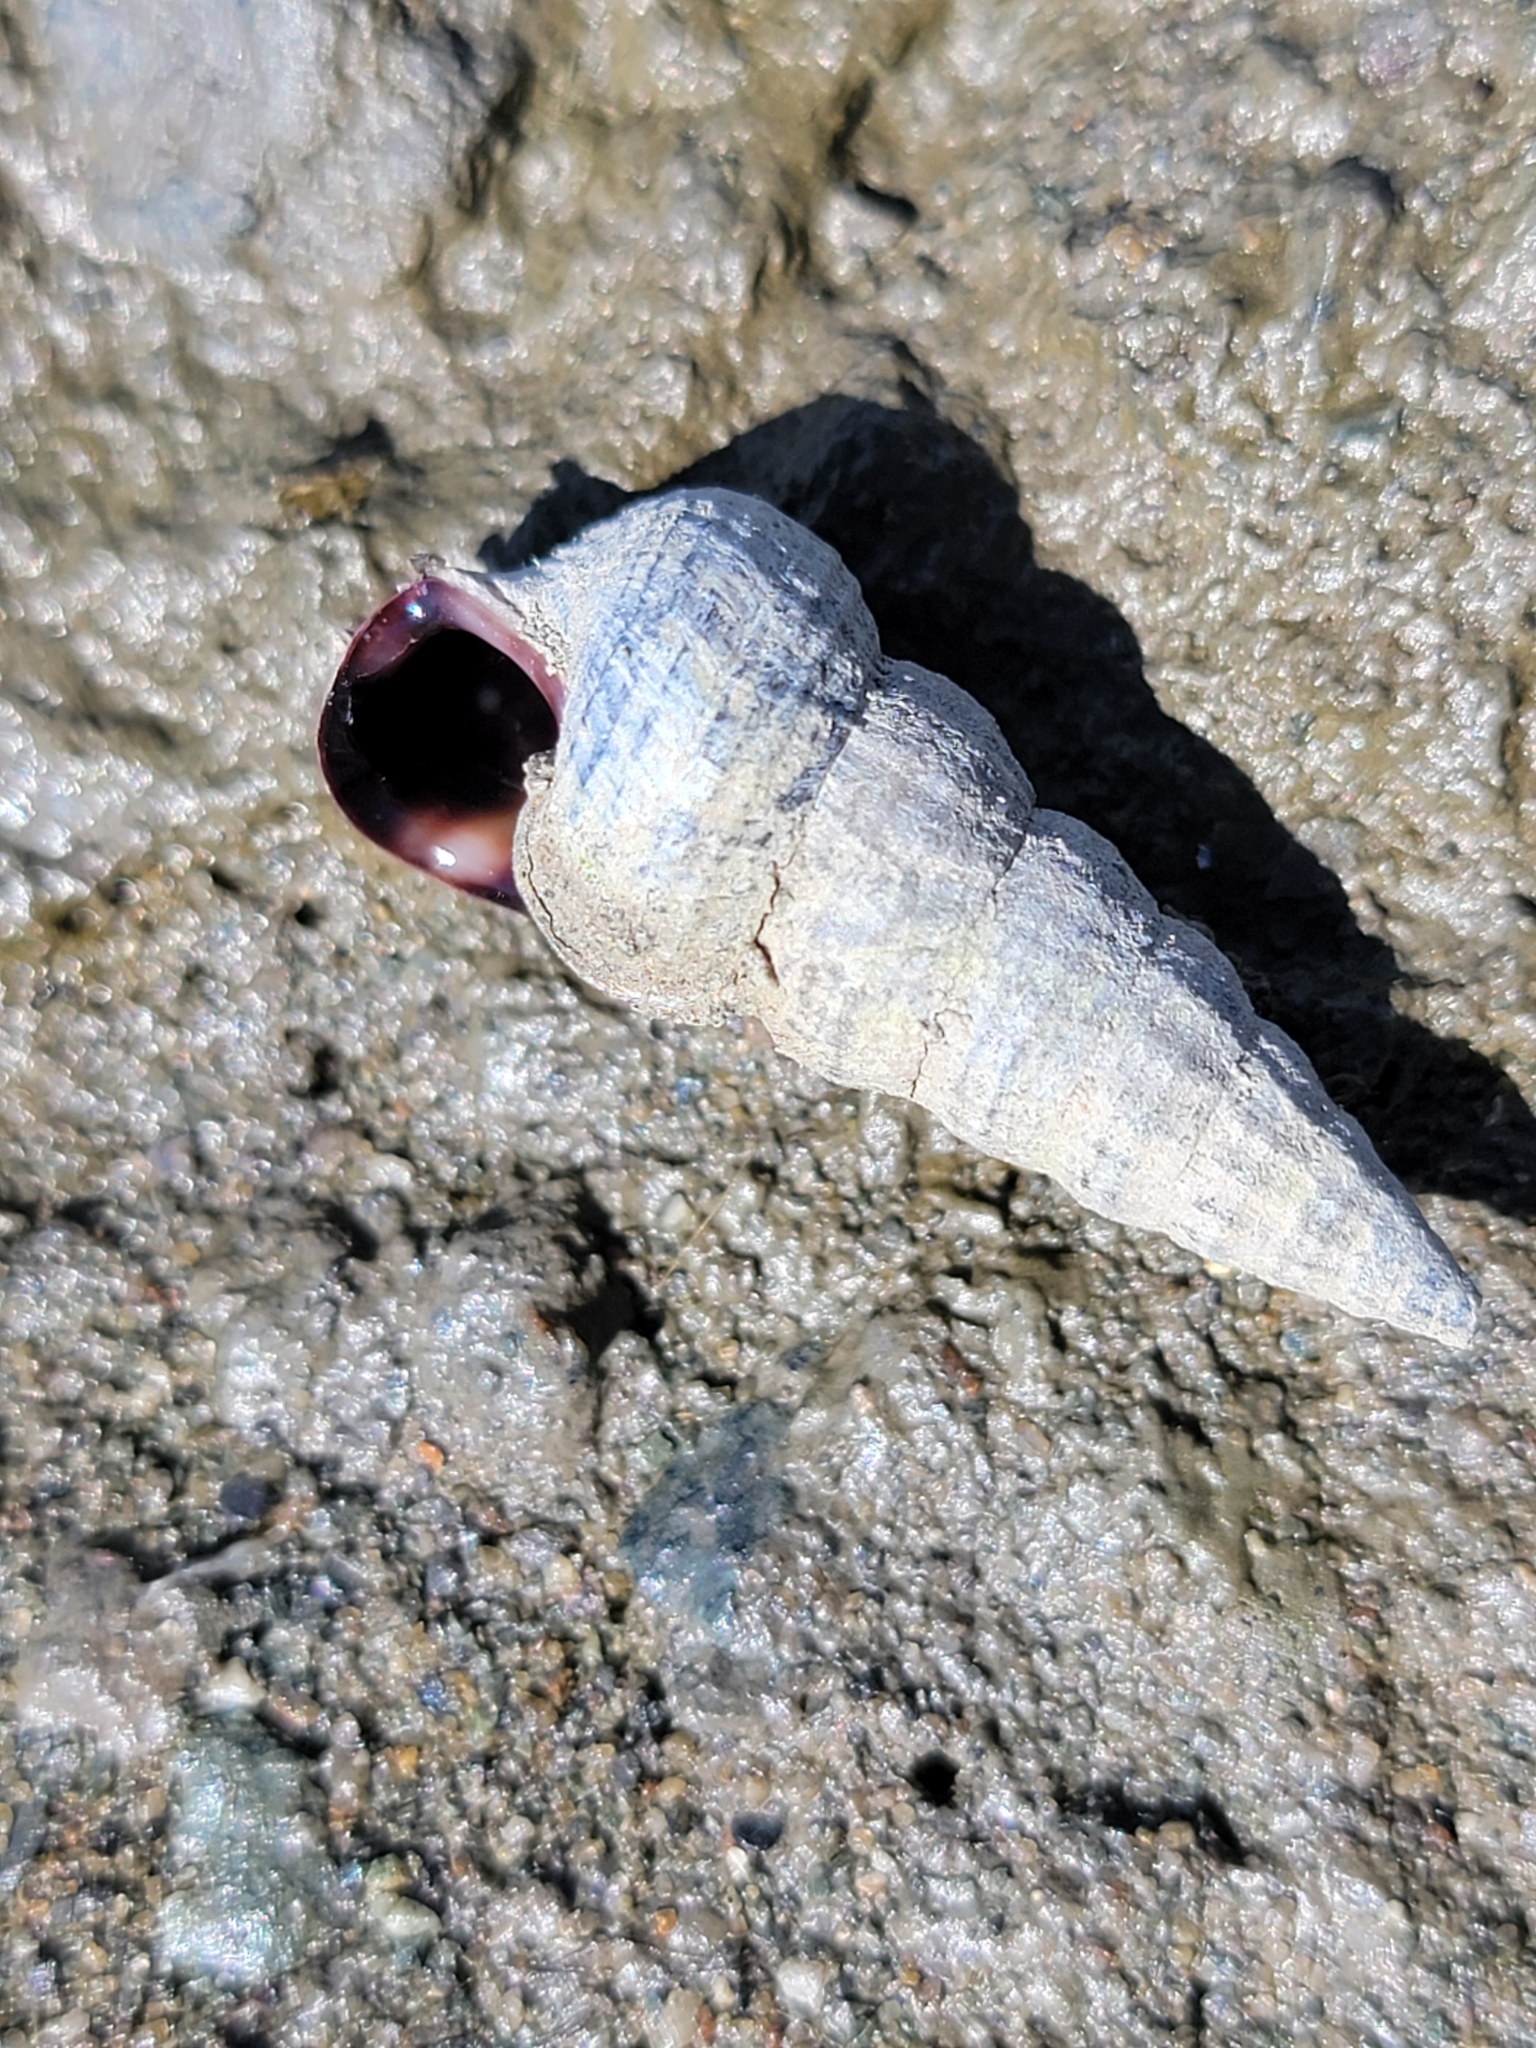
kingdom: Animalia
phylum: Mollusca
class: Gastropoda
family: Potamididae
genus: Cerithideopsis
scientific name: Cerithideopsis californica
